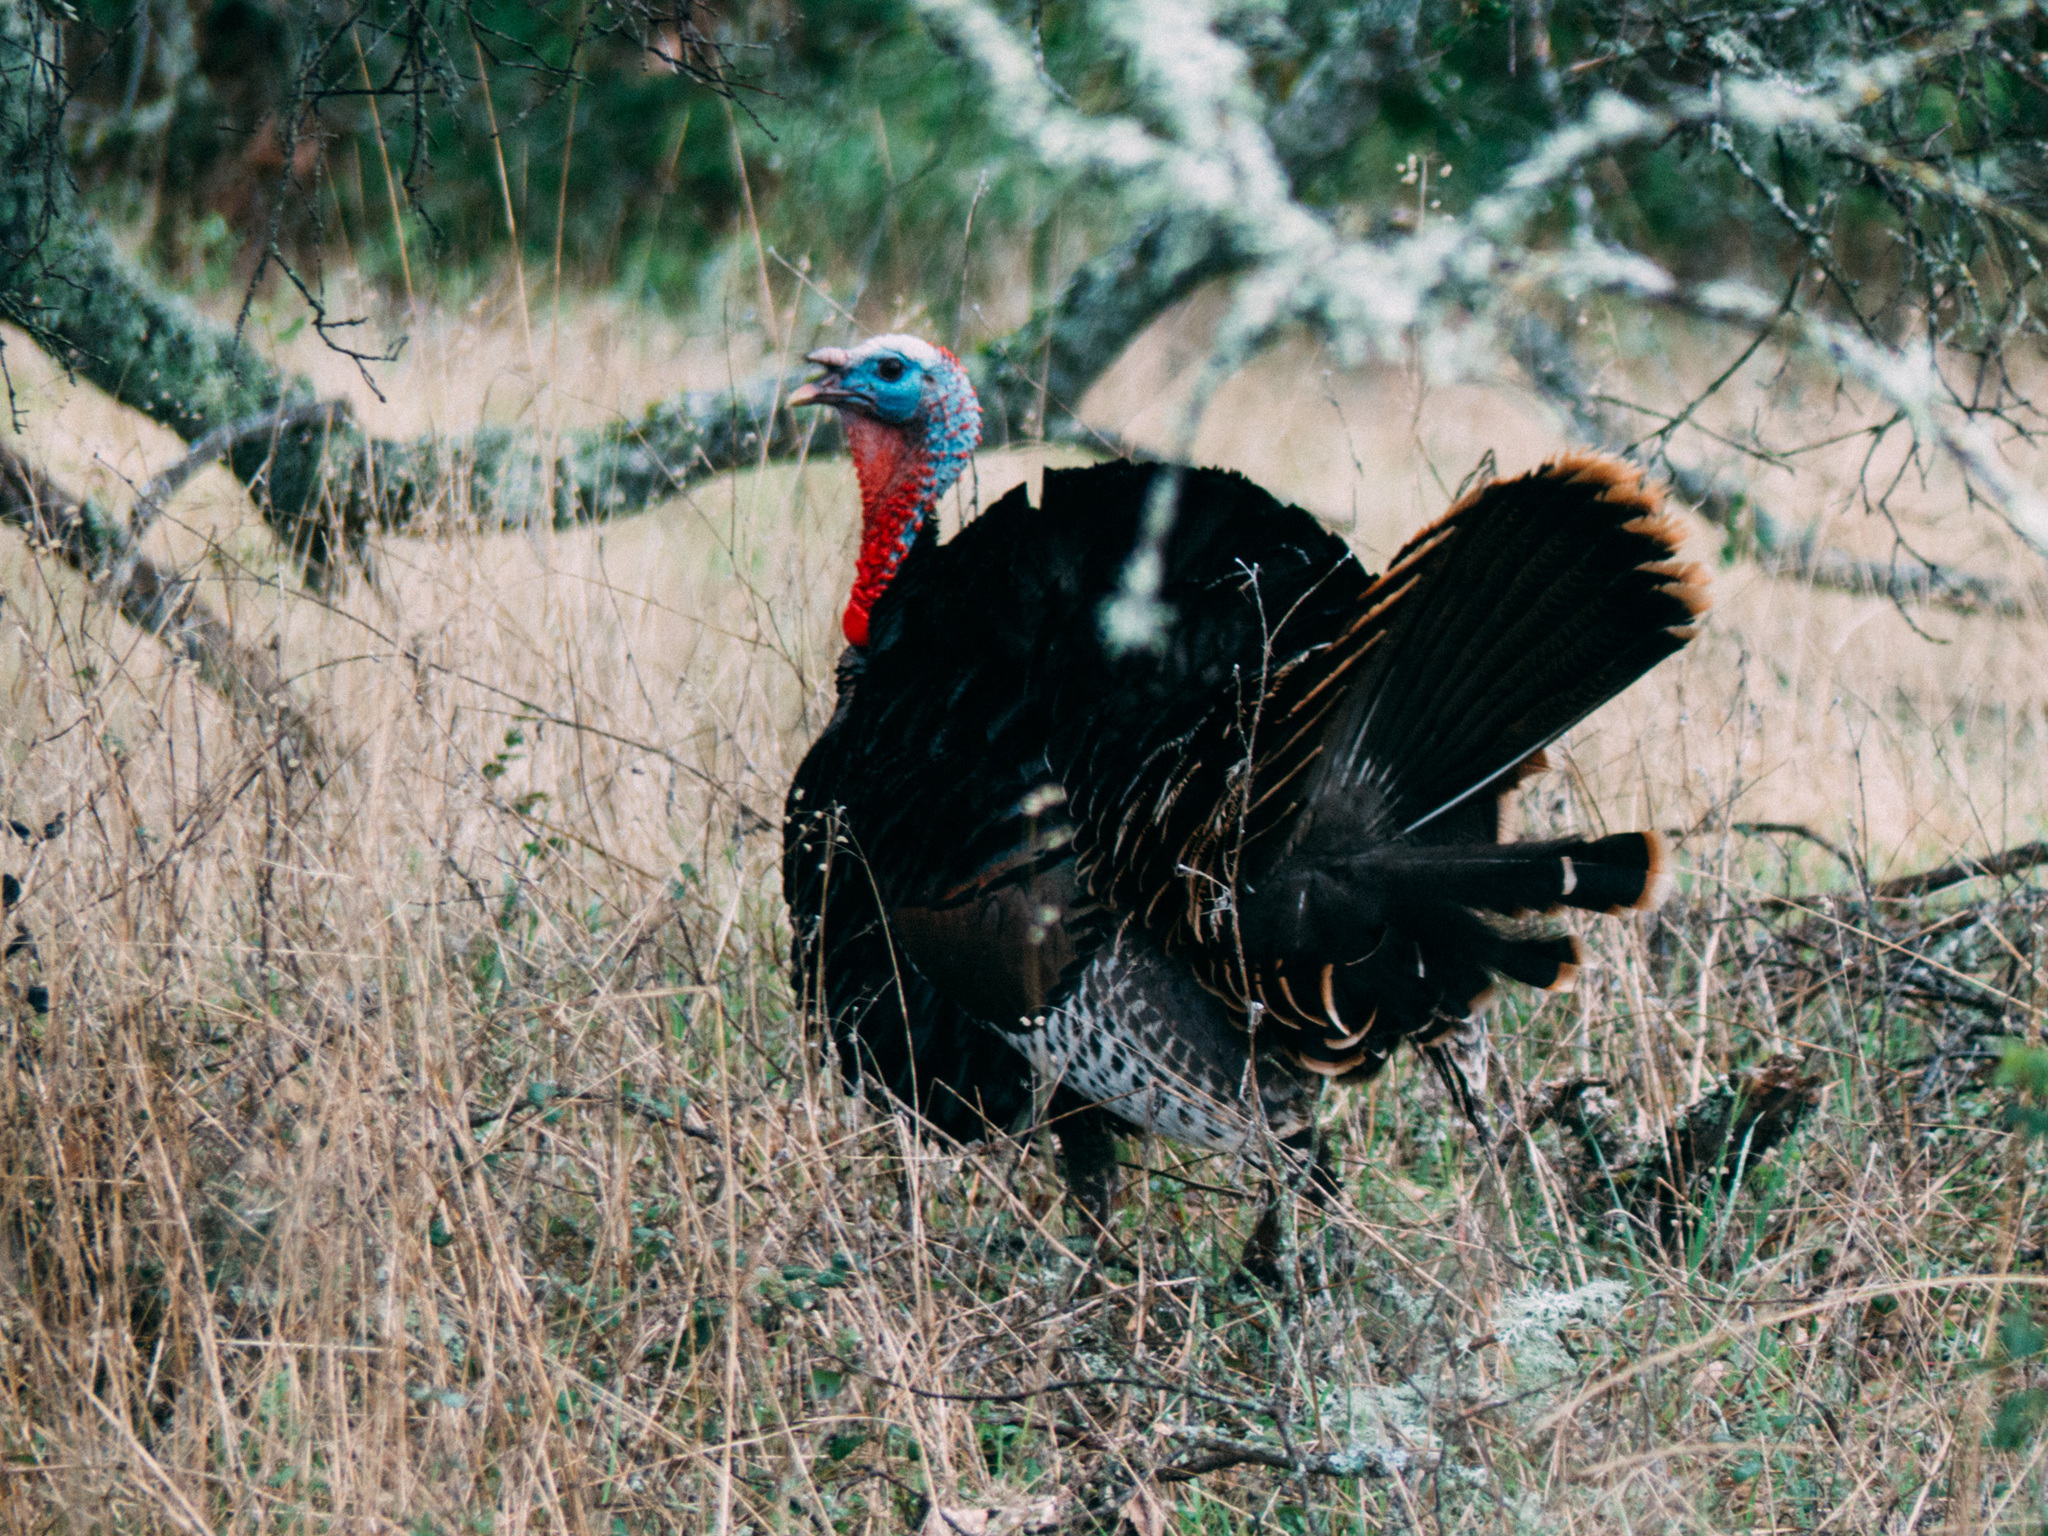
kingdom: Animalia
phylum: Chordata
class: Aves
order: Galliformes
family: Phasianidae
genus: Meleagris
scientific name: Meleagris gallopavo
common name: Wild turkey
